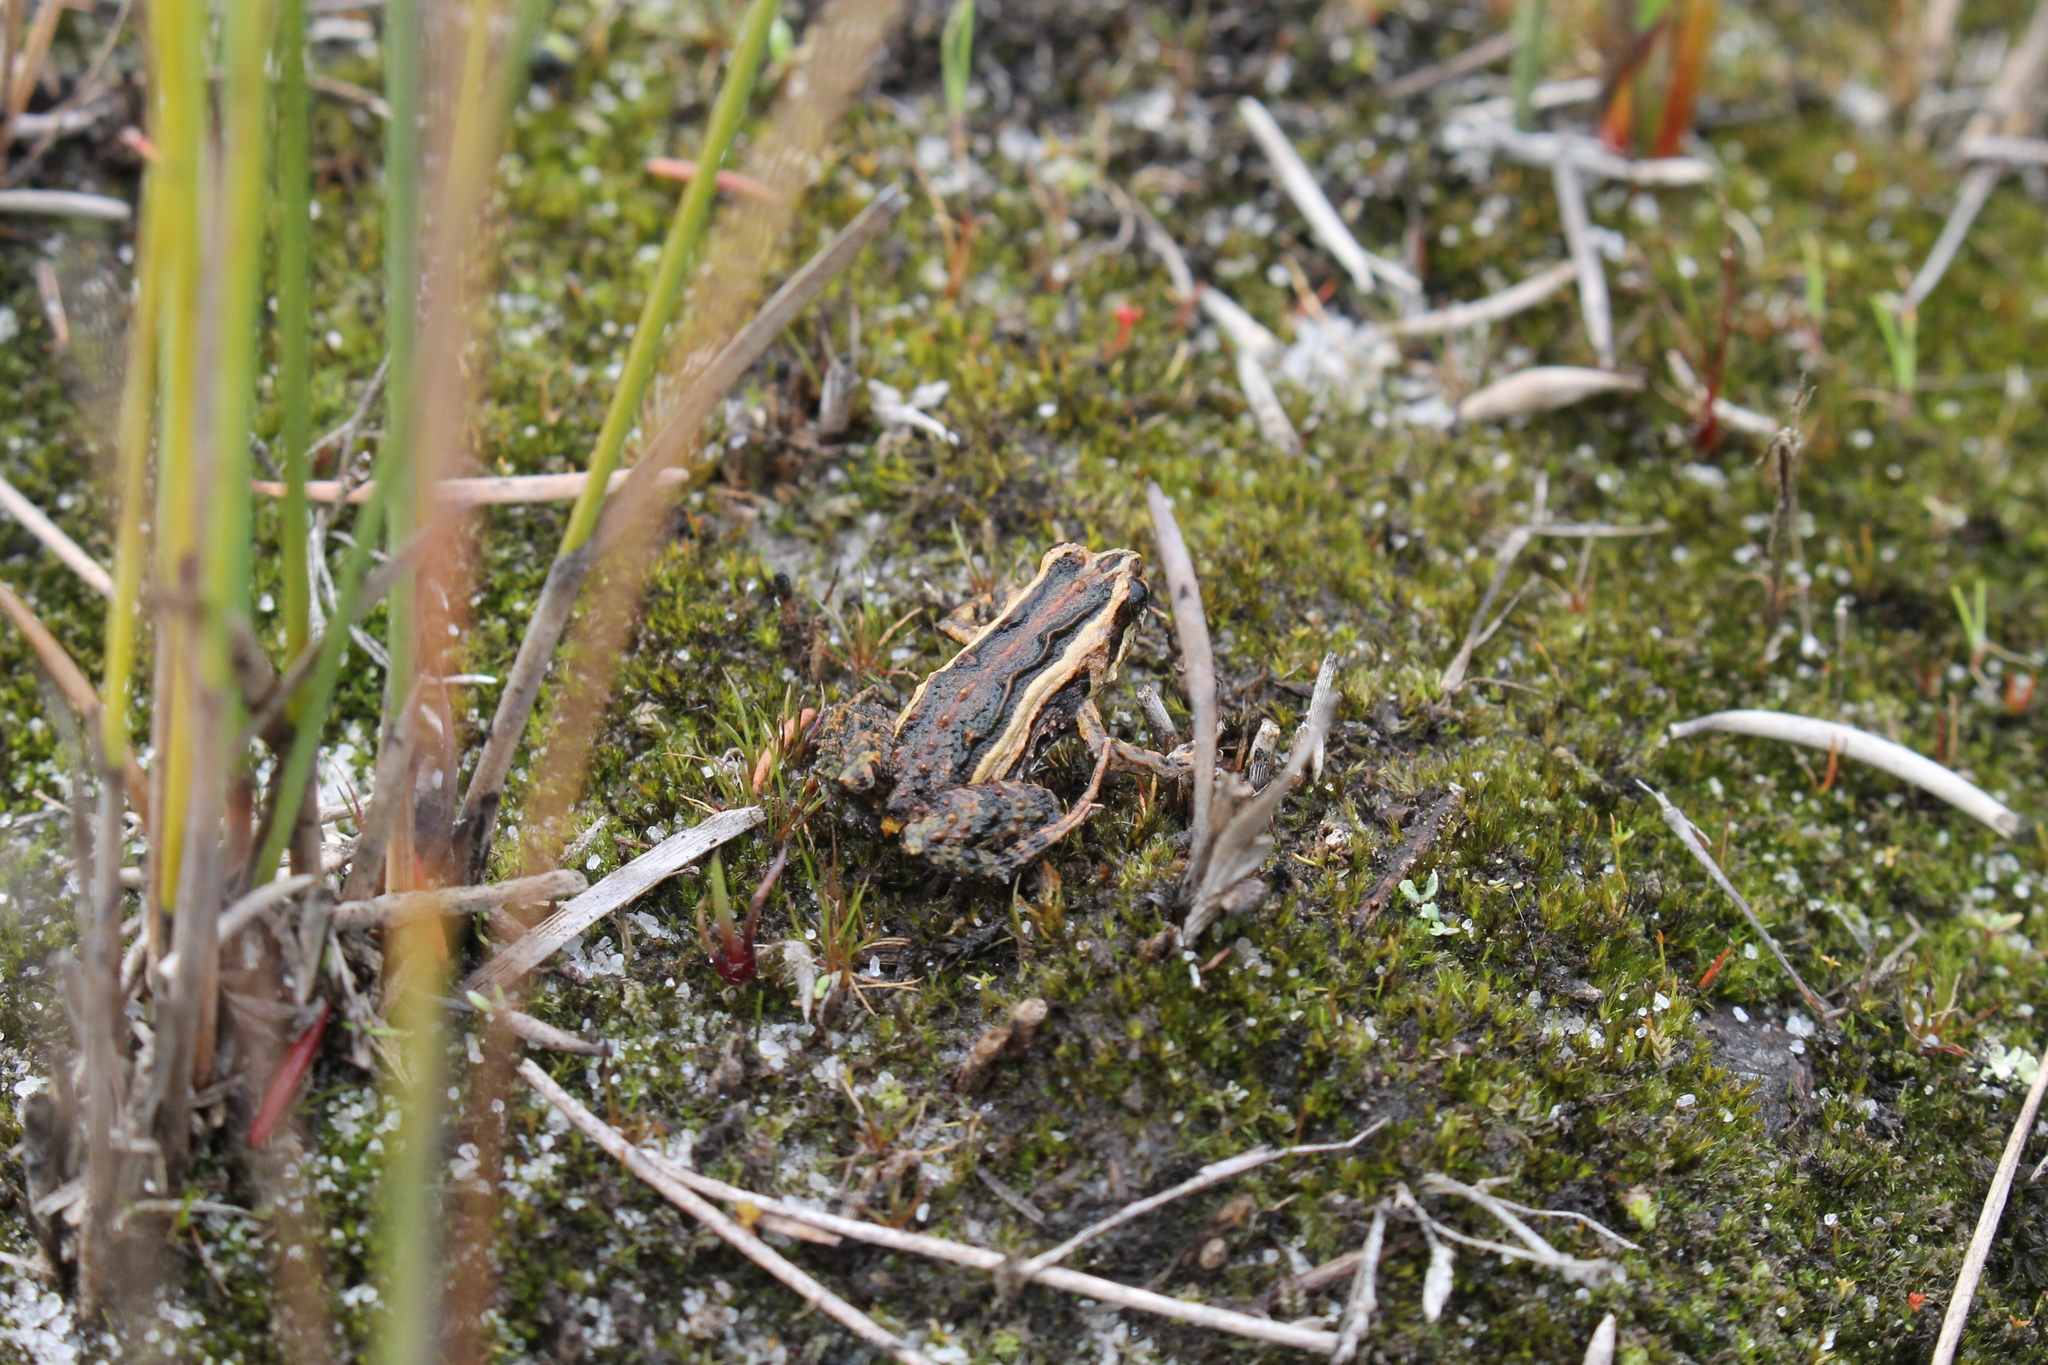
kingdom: Animalia
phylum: Chordata
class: Amphibia
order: Anura
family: Myobatrachidae
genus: Crinia
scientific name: Crinia glauerti
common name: Glauert’s froglet
